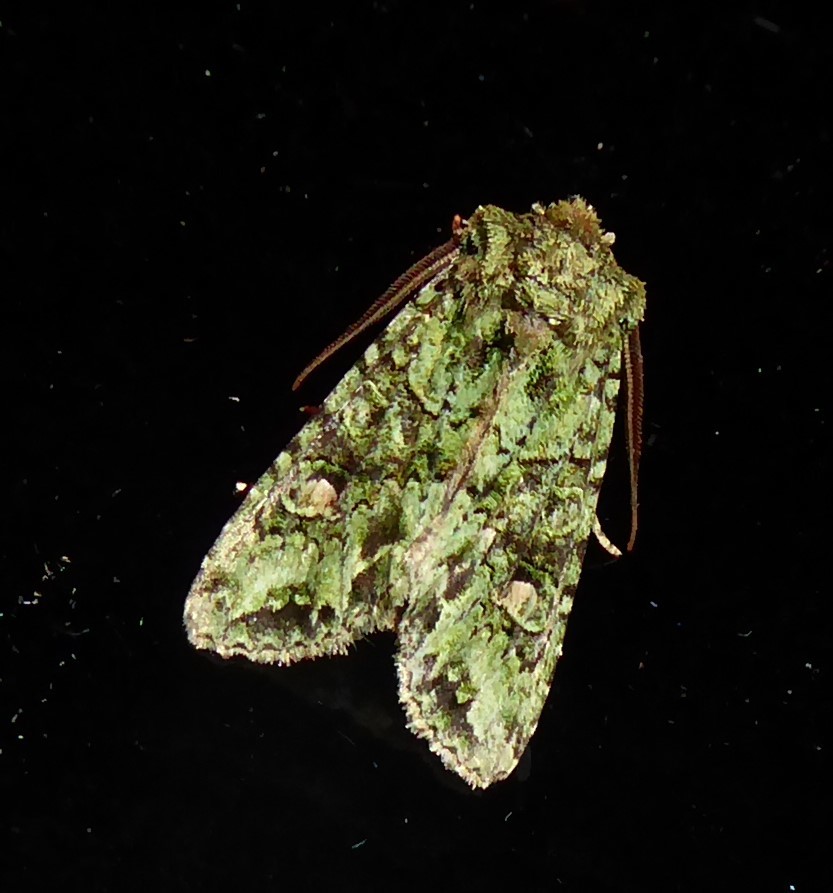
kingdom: Animalia
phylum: Arthropoda
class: Insecta
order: Lepidoptera
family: Noctuidae
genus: Ichneutica
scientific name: Ichneutica
